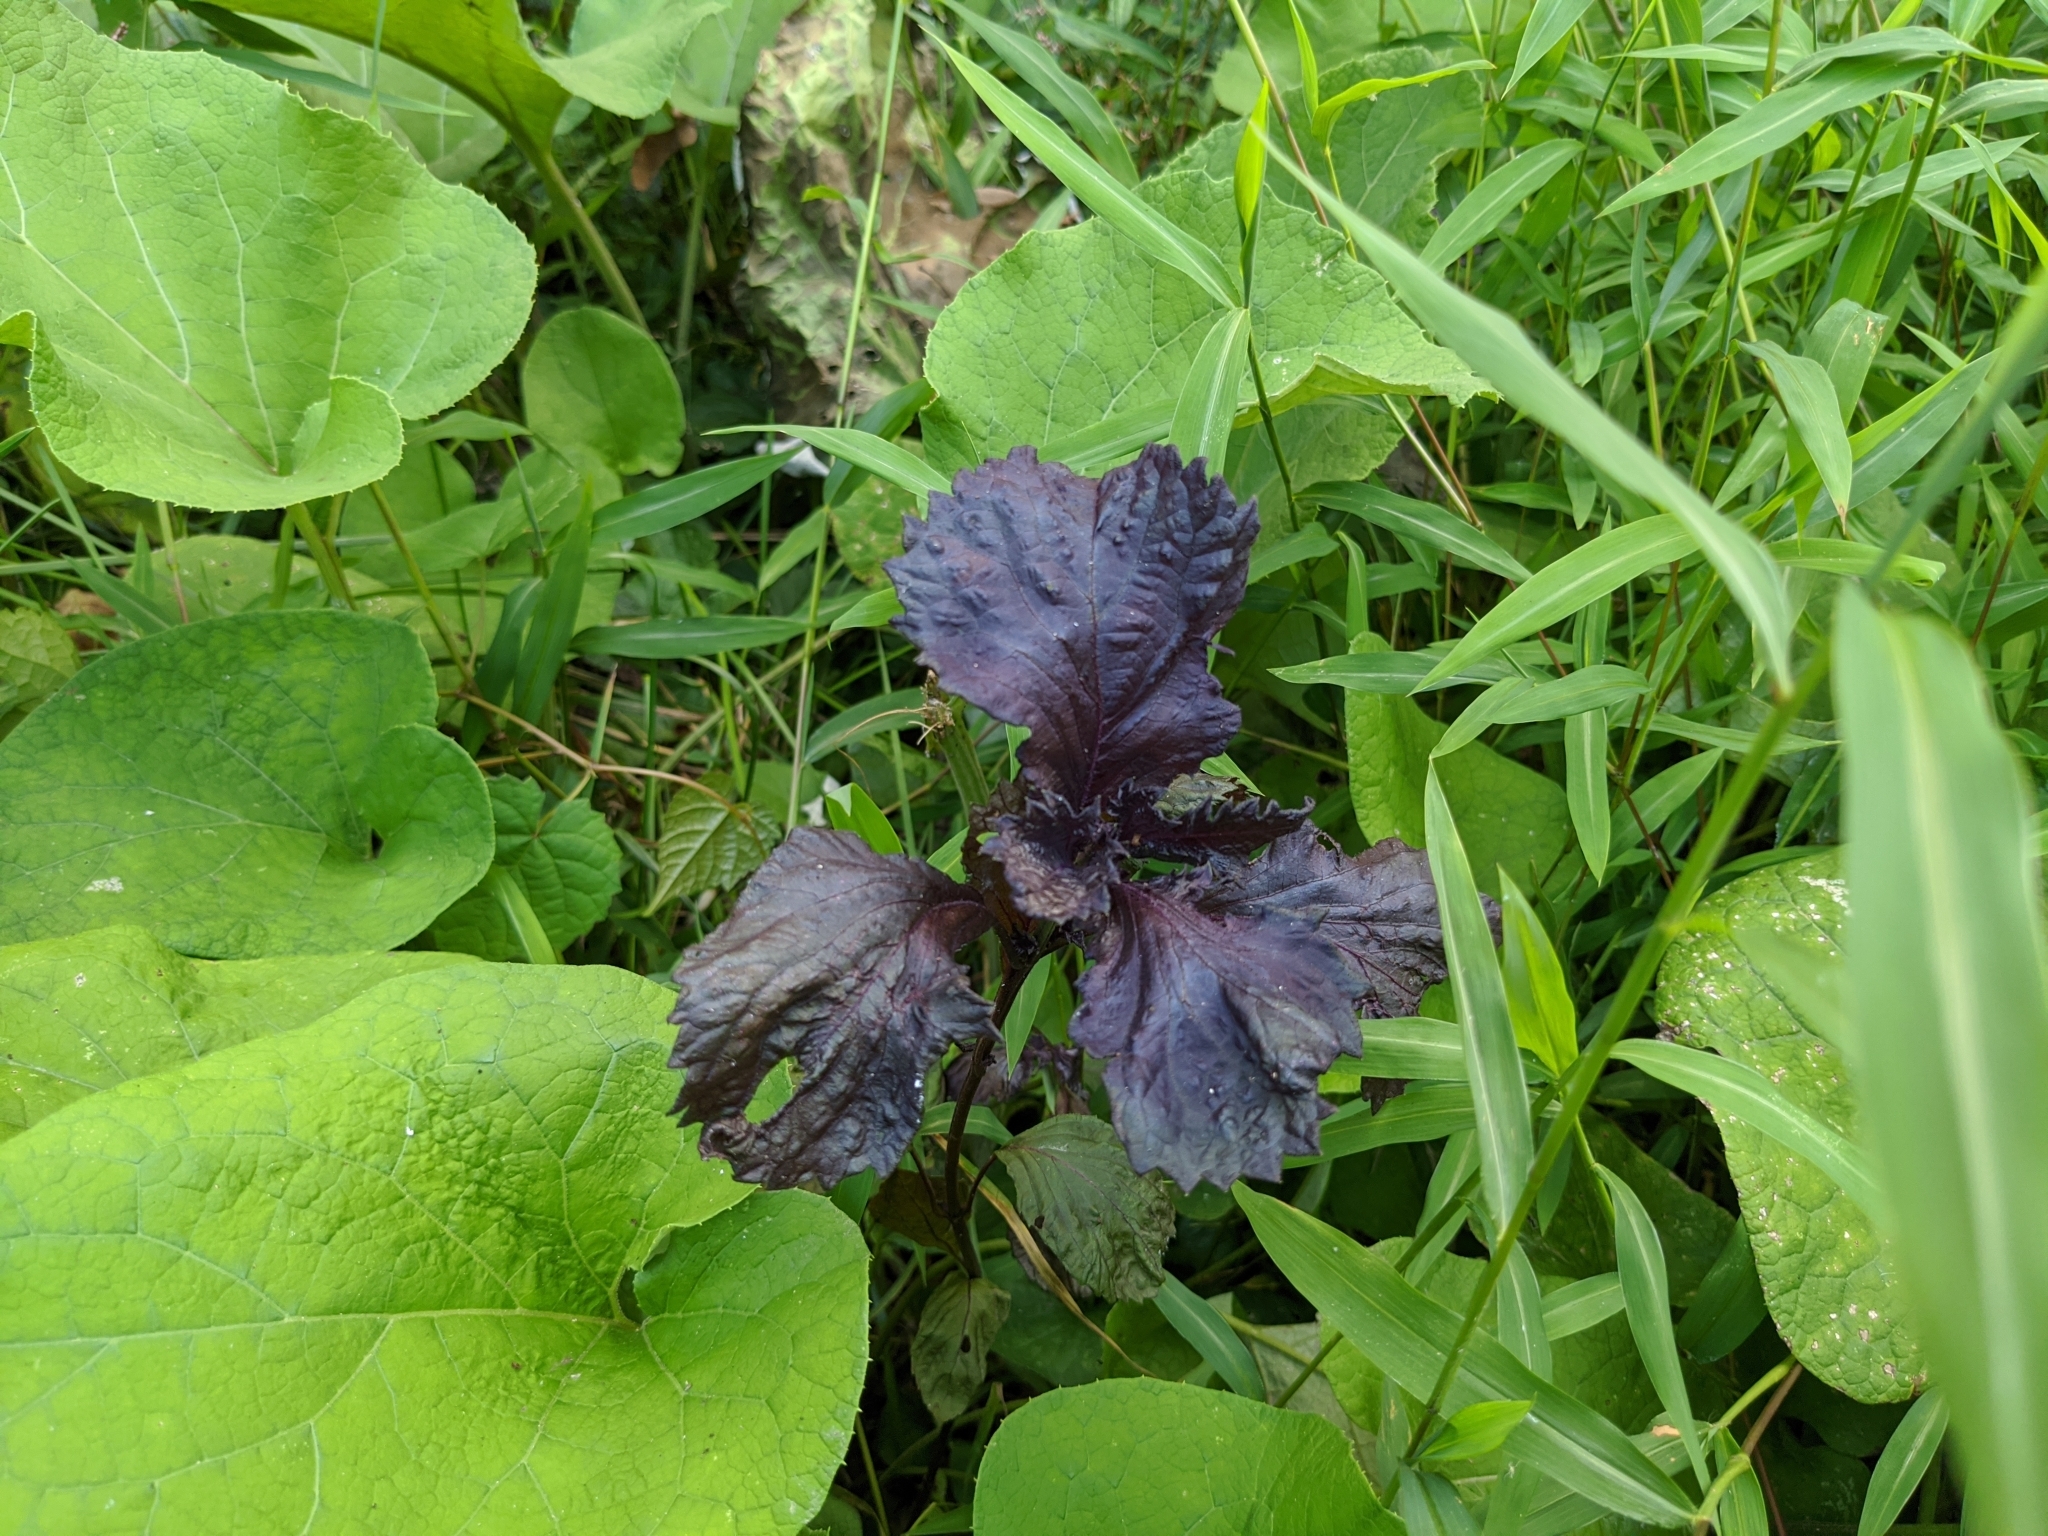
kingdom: Plantae
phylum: Tracheophyta
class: Magnoliopsida
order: Lamiales
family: Lamiaceae
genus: Perilla
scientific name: Perilla frutescens
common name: Perilla
